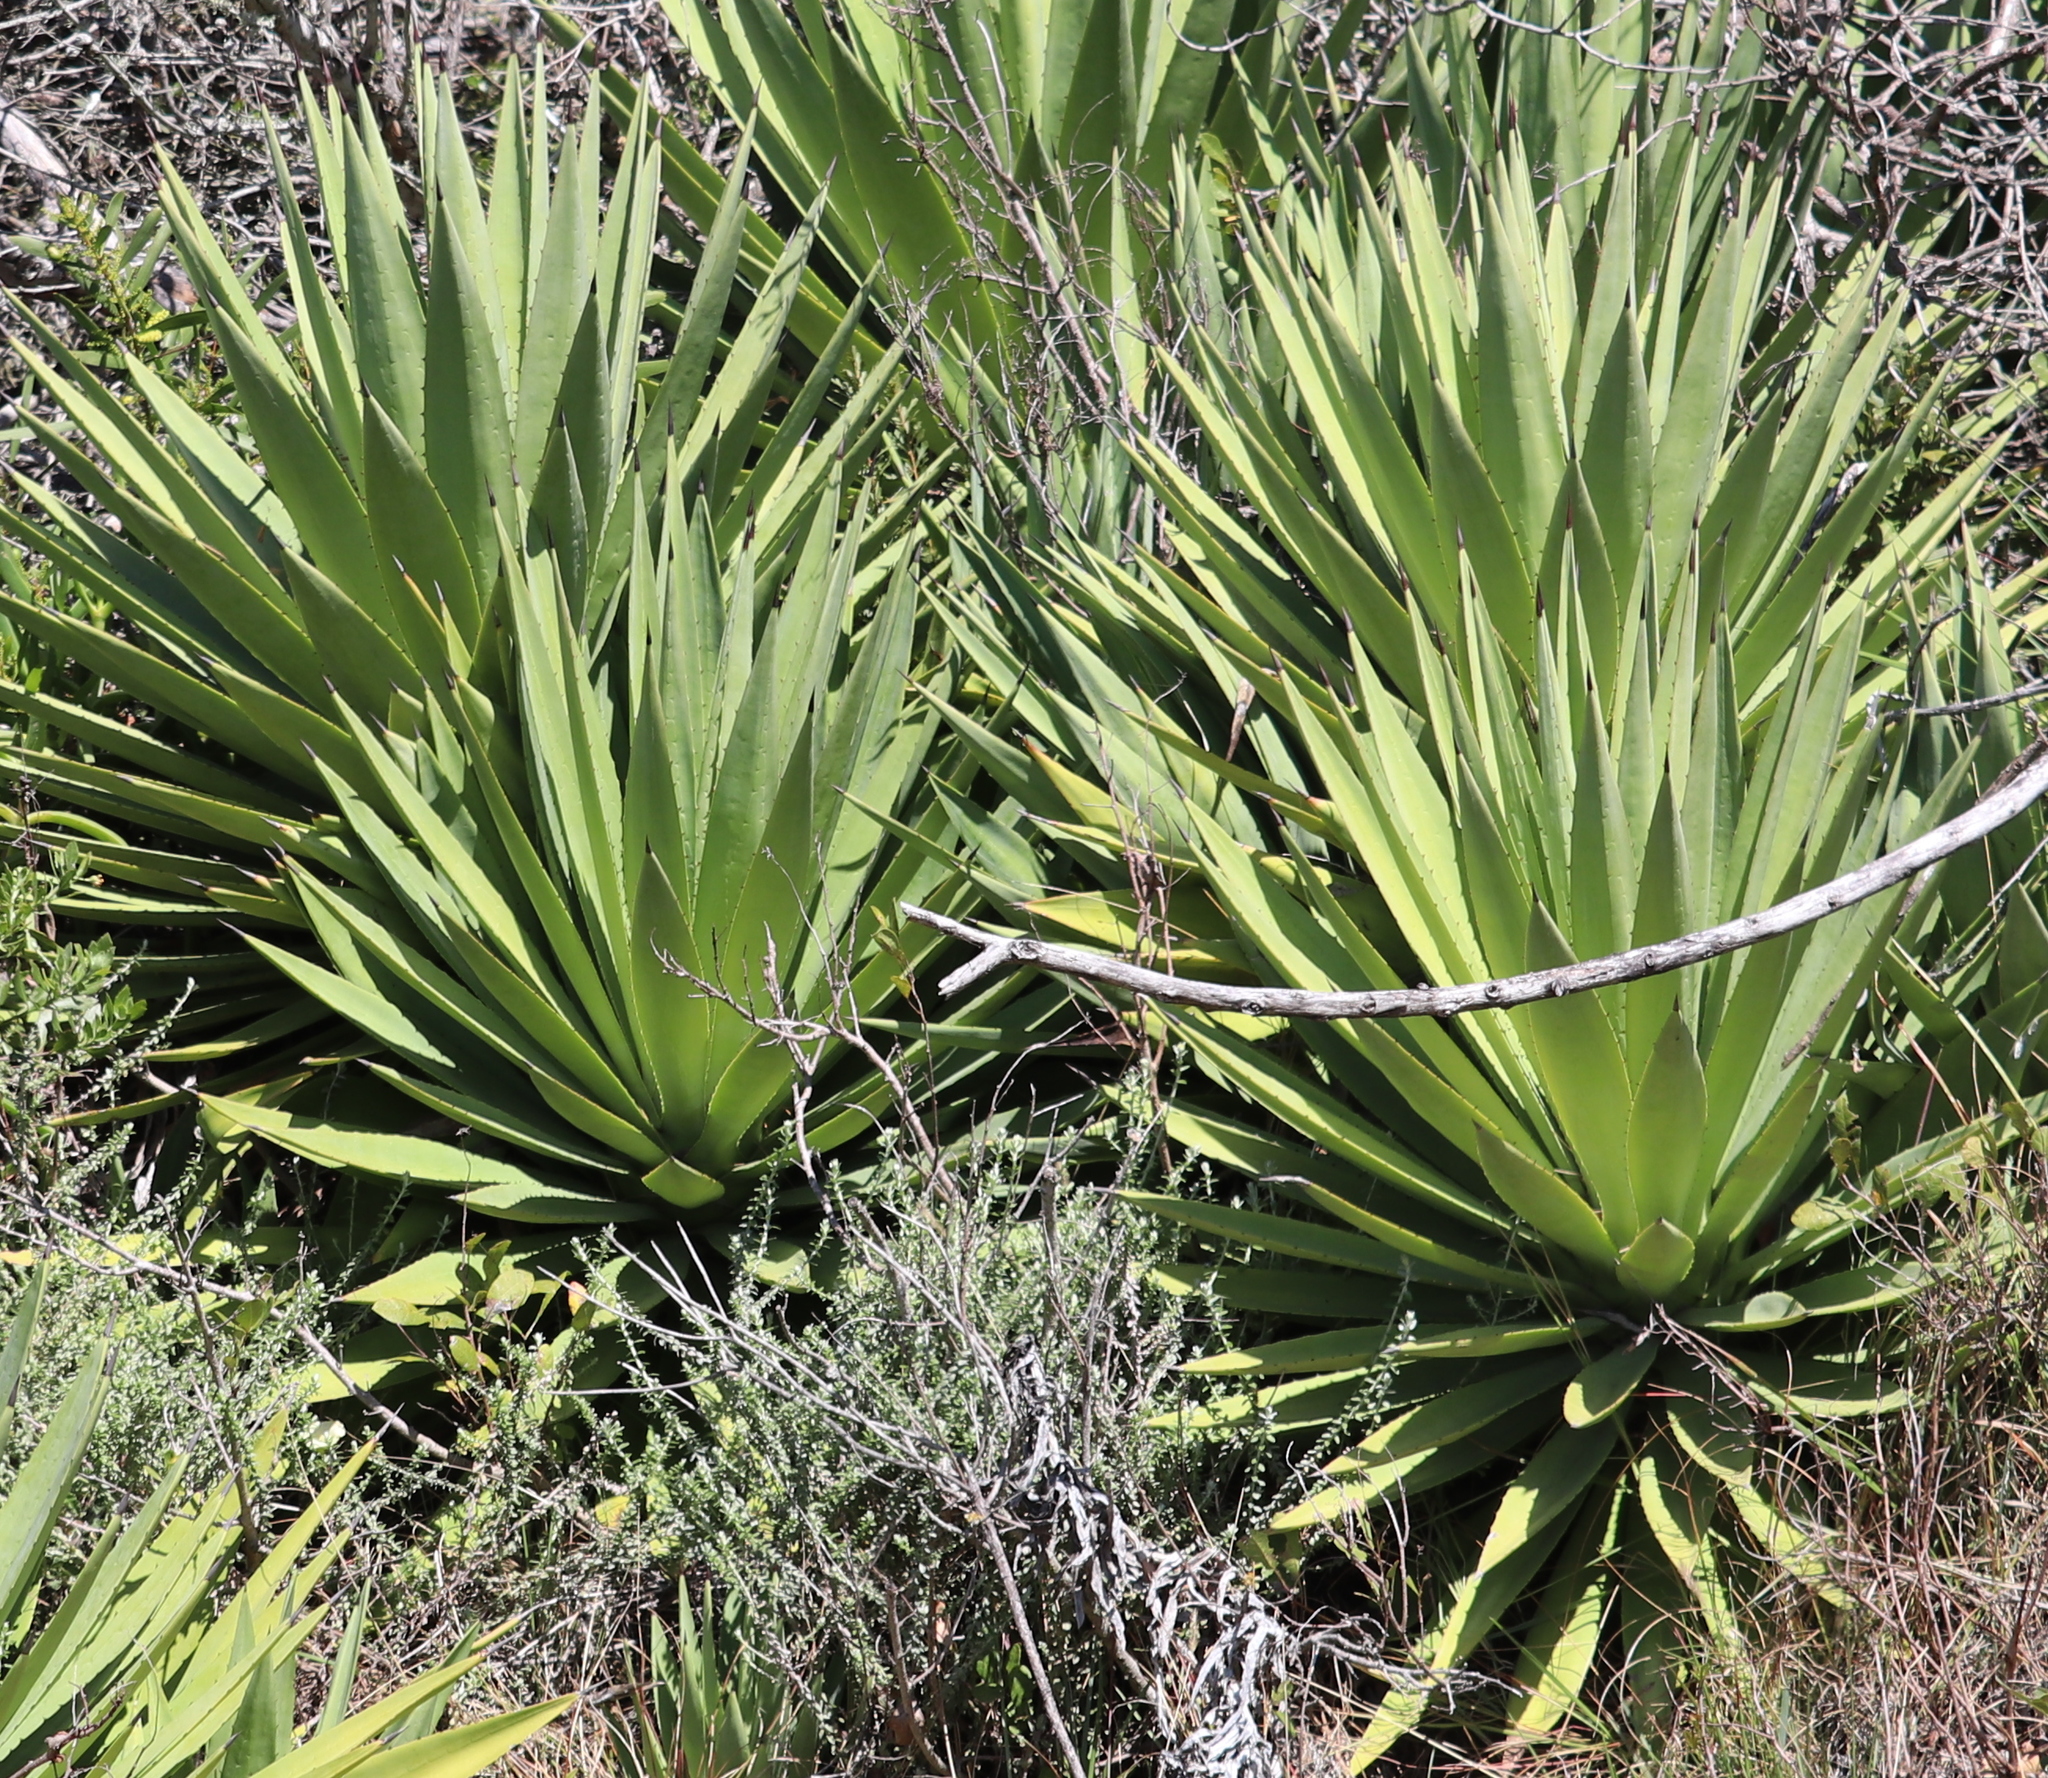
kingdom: Plantae
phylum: Tracheophyta
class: Liliopsida
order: Asparagales
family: Asparagaceae
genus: Agave
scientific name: Agave sisalana
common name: Sisal hemp
